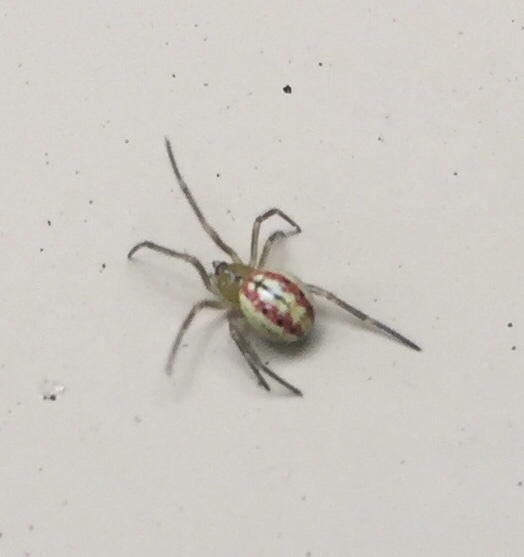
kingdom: Animalia
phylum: Arthropoda
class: Arachnida
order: Araneae
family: Theridiidae
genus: Enoplognatha
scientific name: Enoplognatha ovata
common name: Common candy-striped spider
